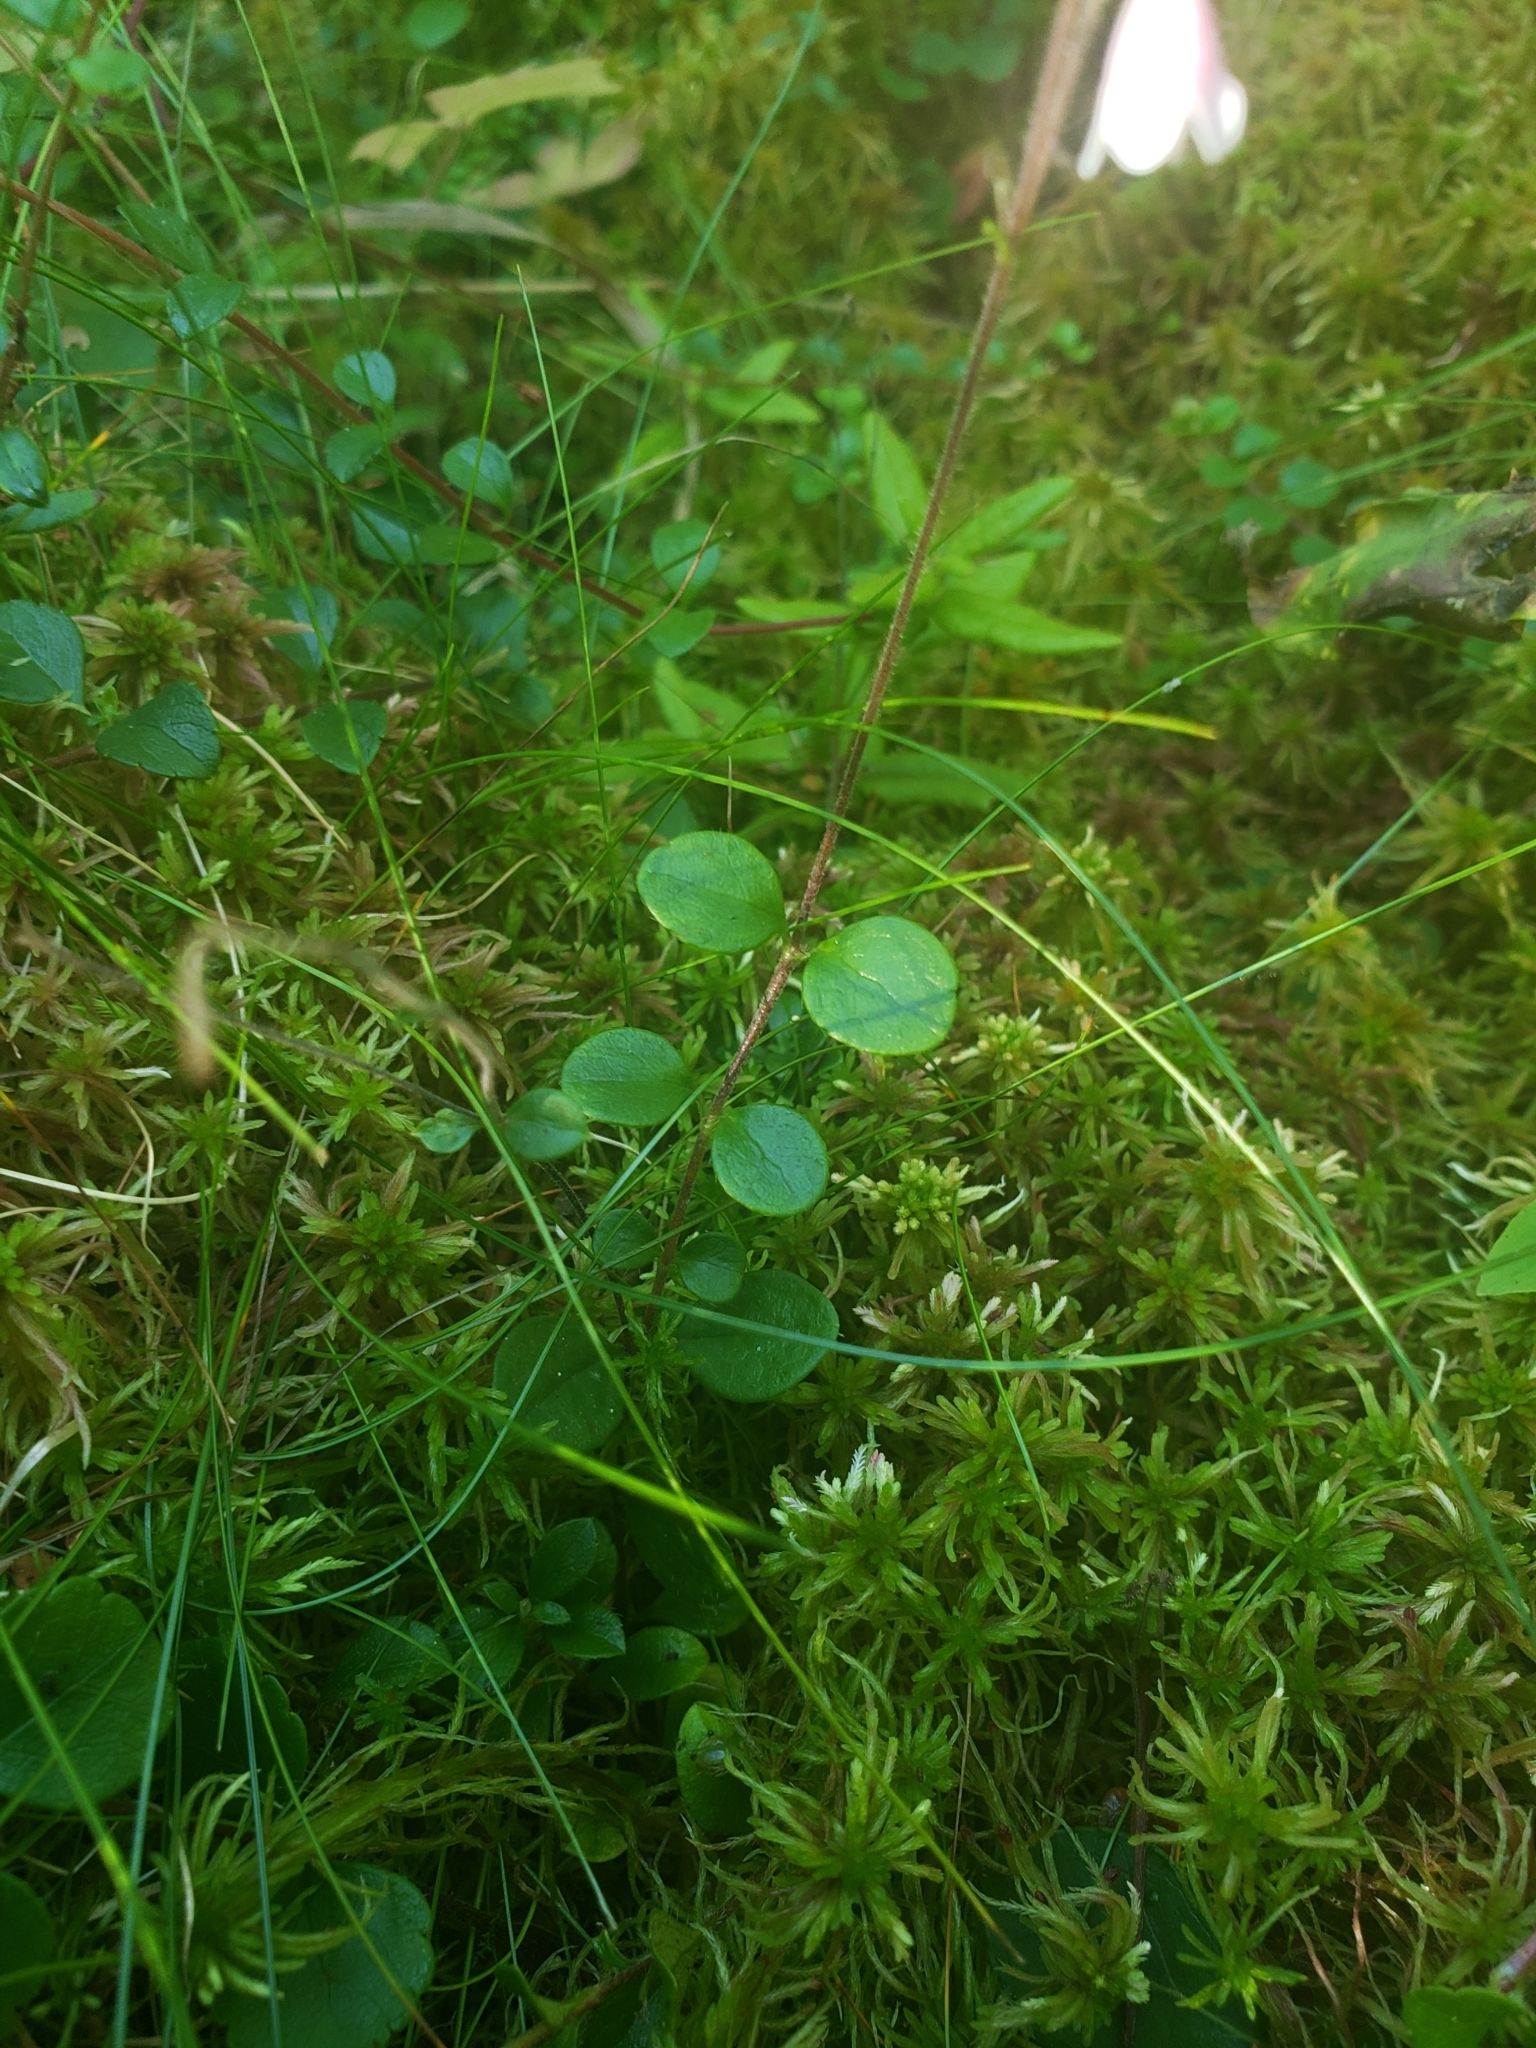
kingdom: Plantae
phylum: Tracheophyta
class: Magnoliopsida
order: Dipsacales
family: Caprifoliaceae
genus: Linnaea
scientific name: Linnaea borealis
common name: Twinflower
